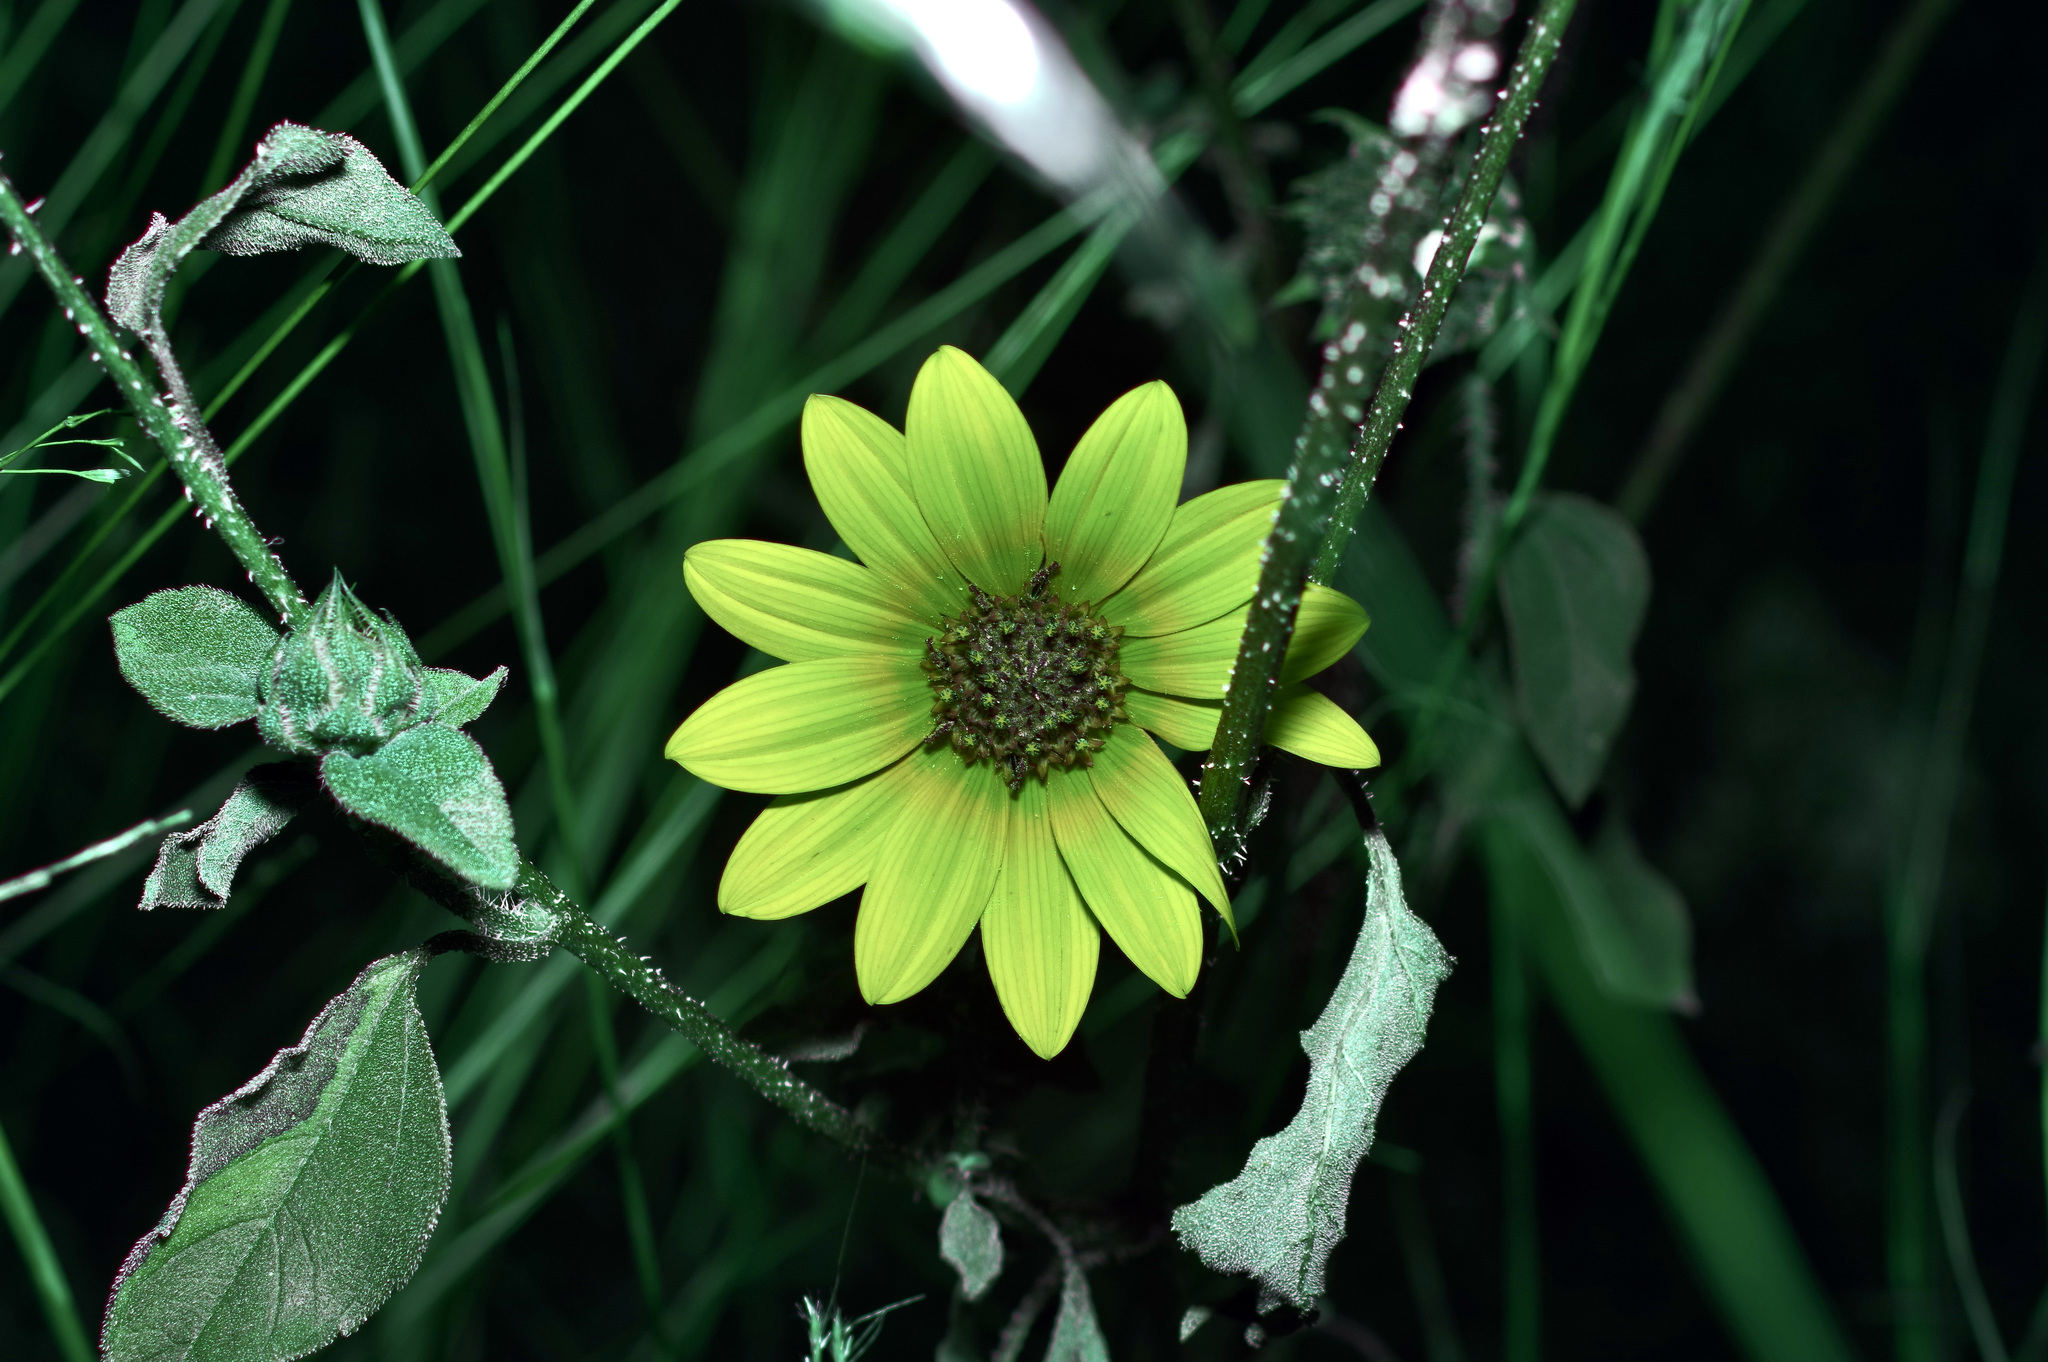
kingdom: Plantae
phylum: Tracheophyta
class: Magnoliopsida
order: Asterales
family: Asteraceae
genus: Helianthus
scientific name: Helianthus annuus
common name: Sunflower
